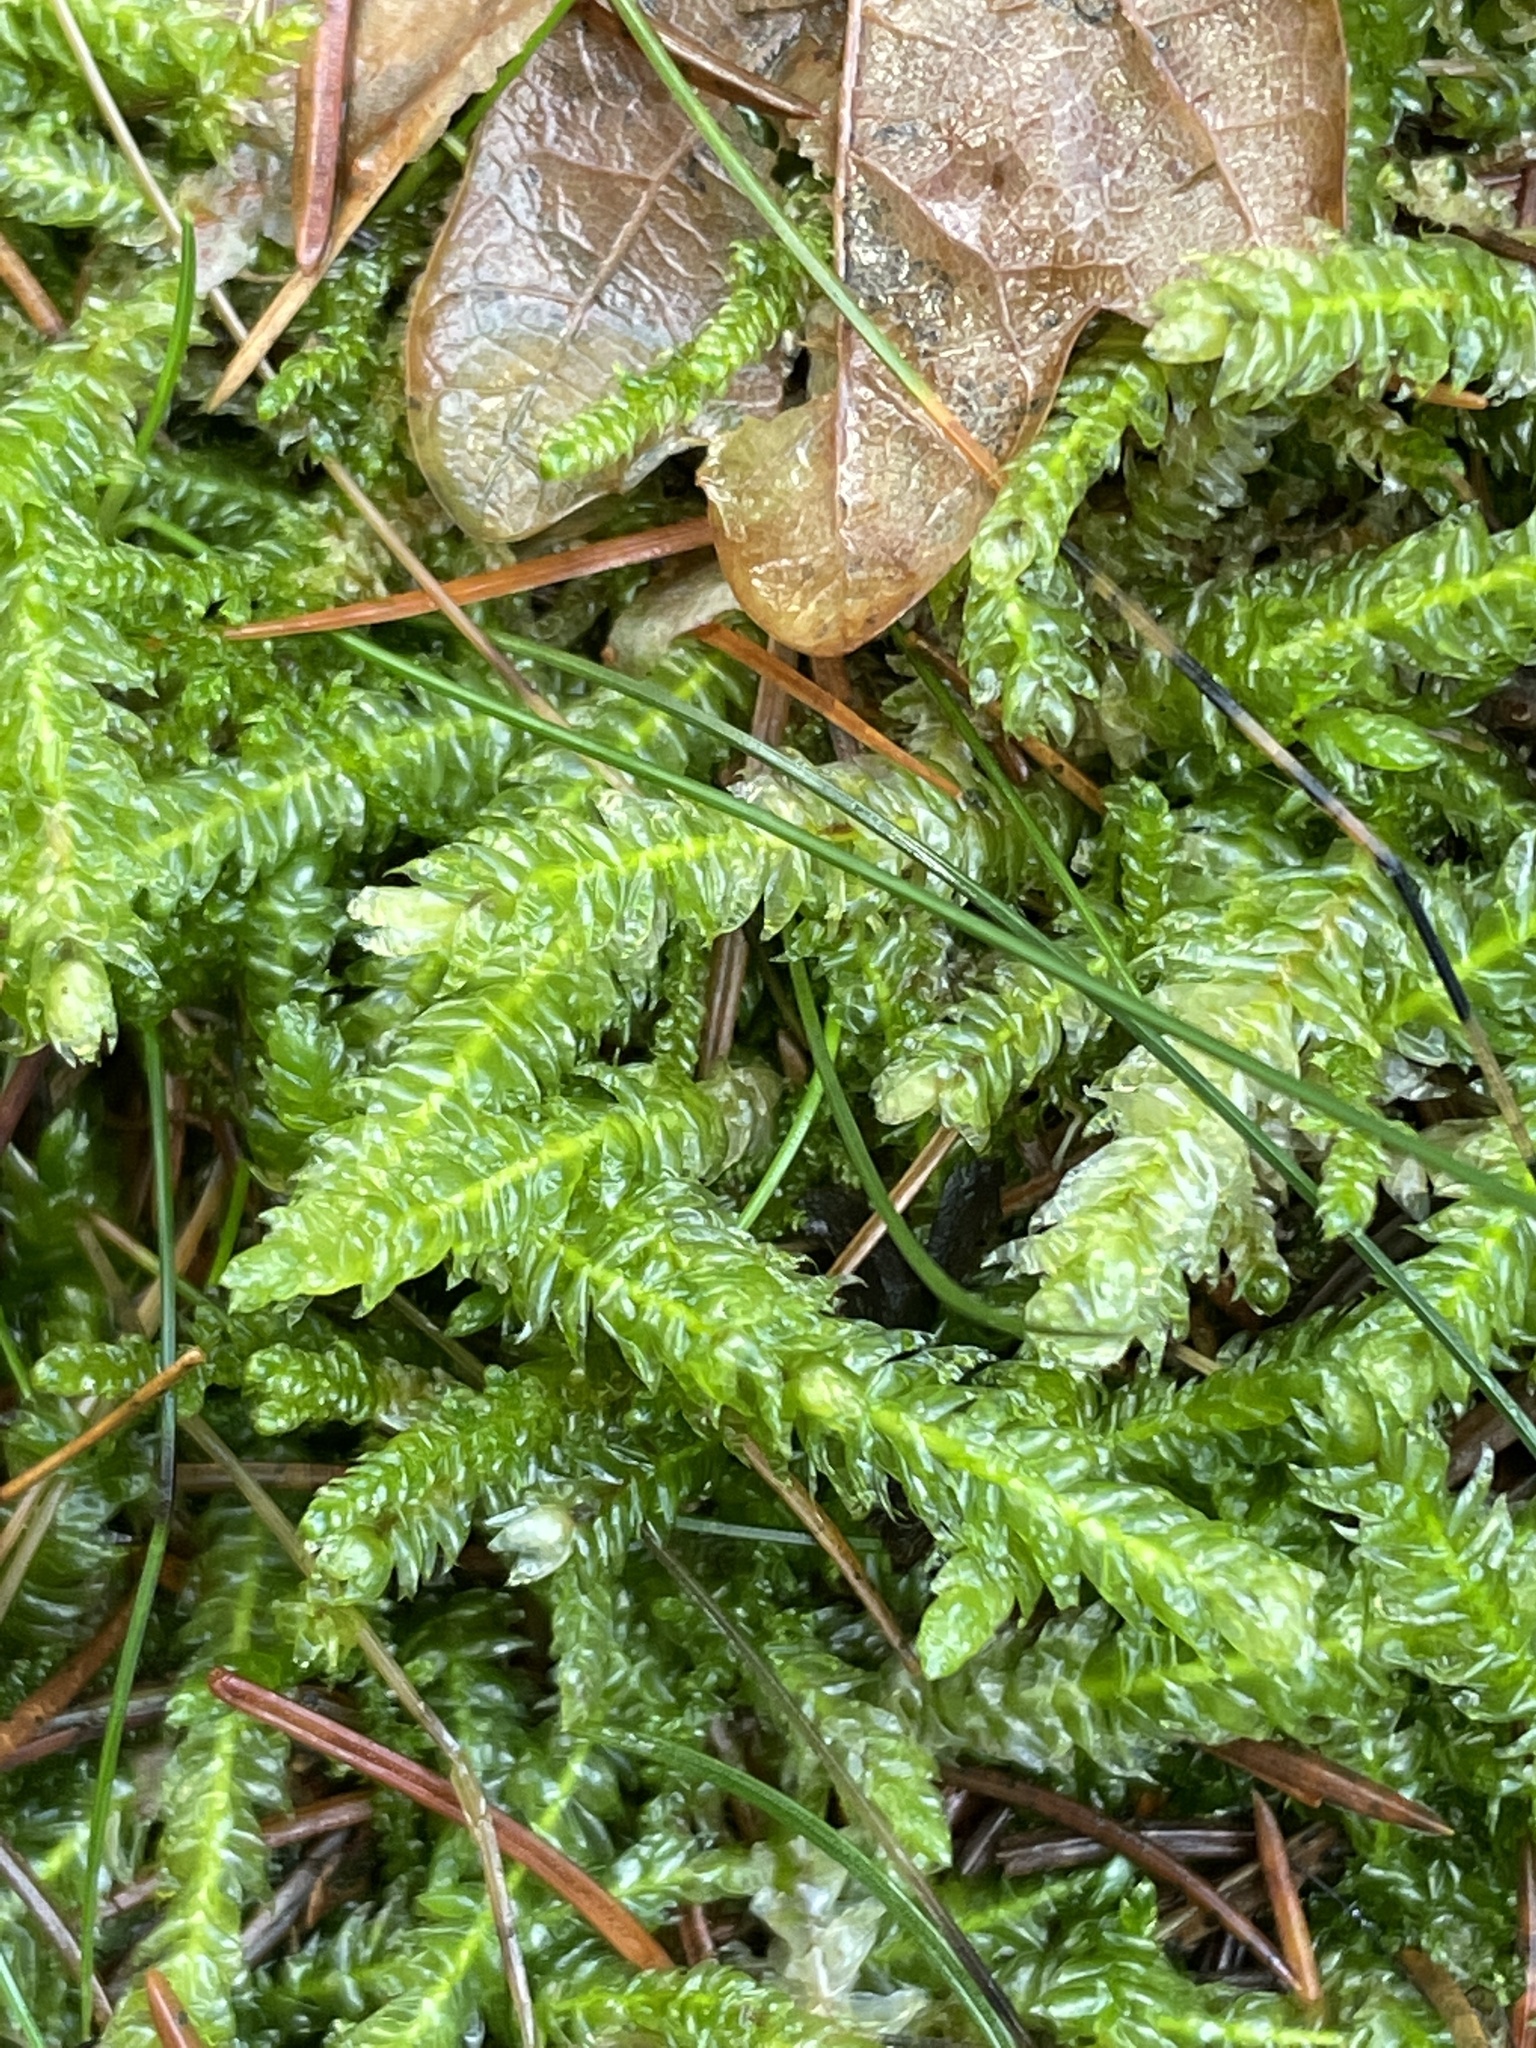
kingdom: Plantae
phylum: Bryophyta
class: Bryopsida
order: Hypnales
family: Plagiotheciaceae
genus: Plagiothecium
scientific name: Plagiothecium undulatum
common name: Waved silk-moss
